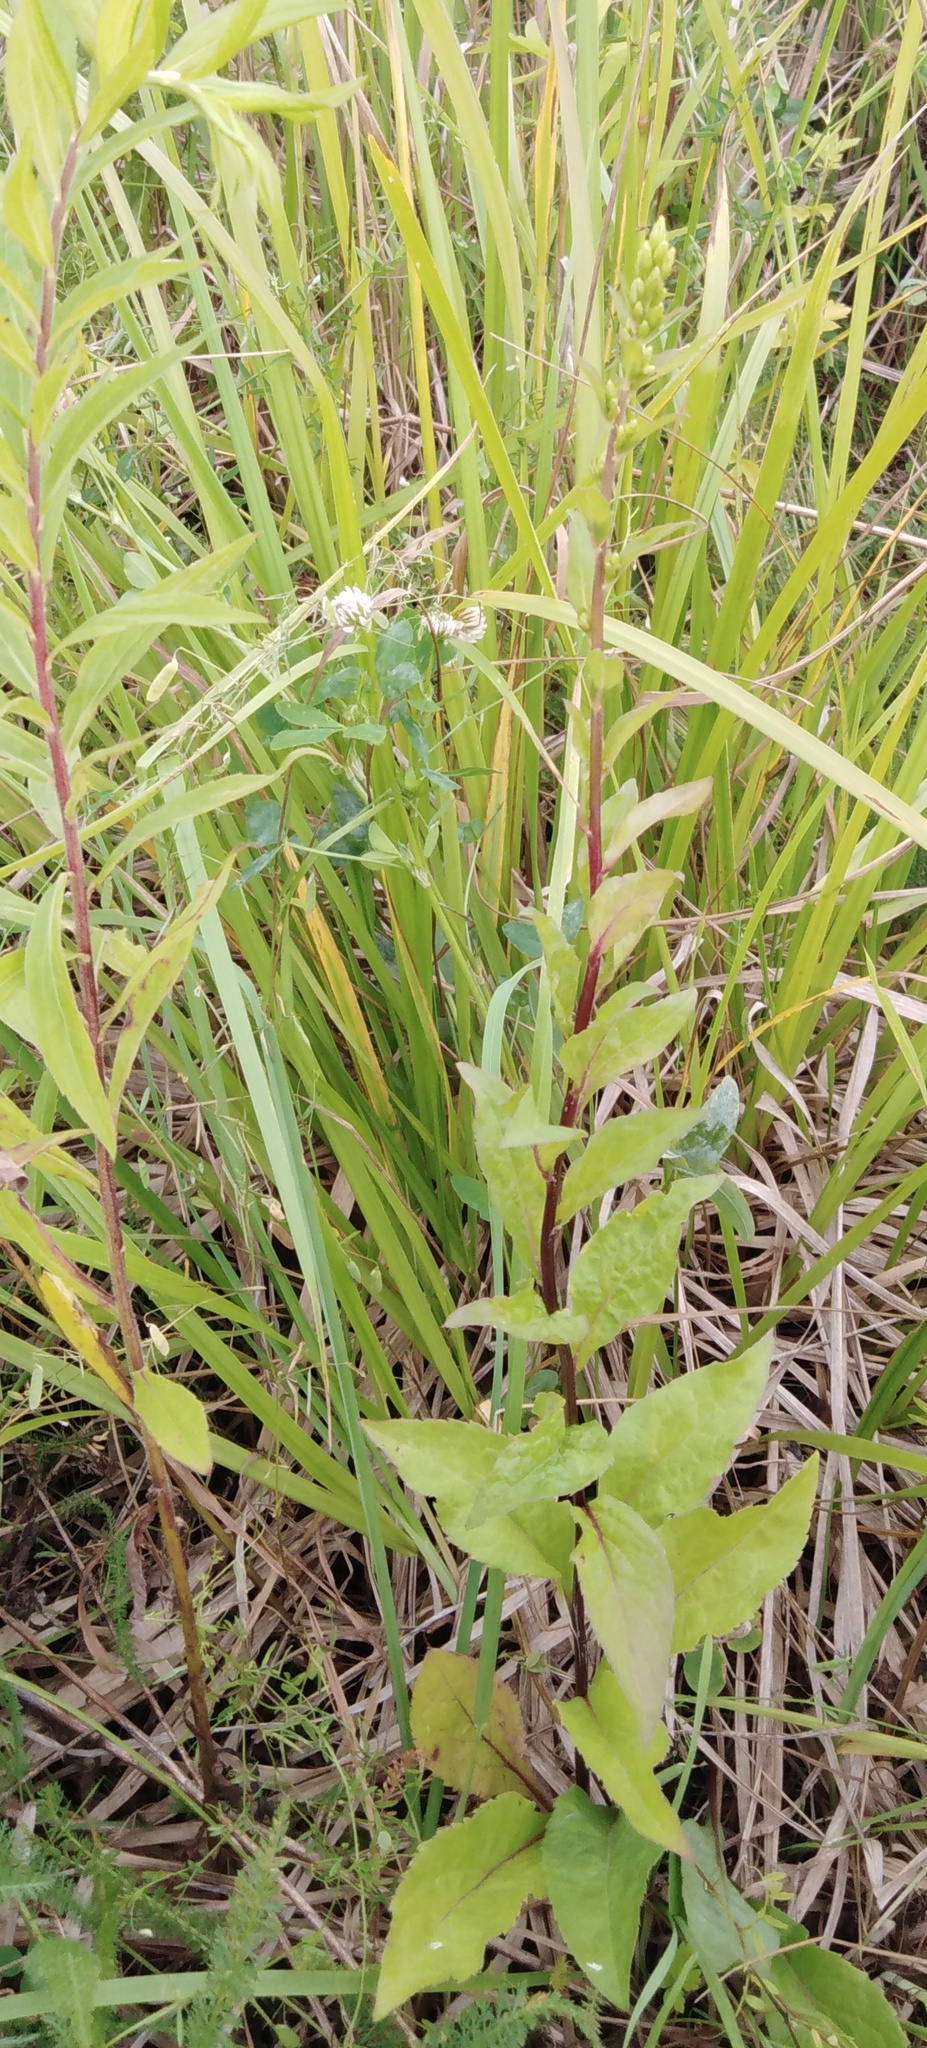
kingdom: Plantae
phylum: Tracheophyta
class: Magnoliopsida
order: Asterales
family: Asteraceae
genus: Solidago
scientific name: Solidago virgaurea
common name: Goldenrod
